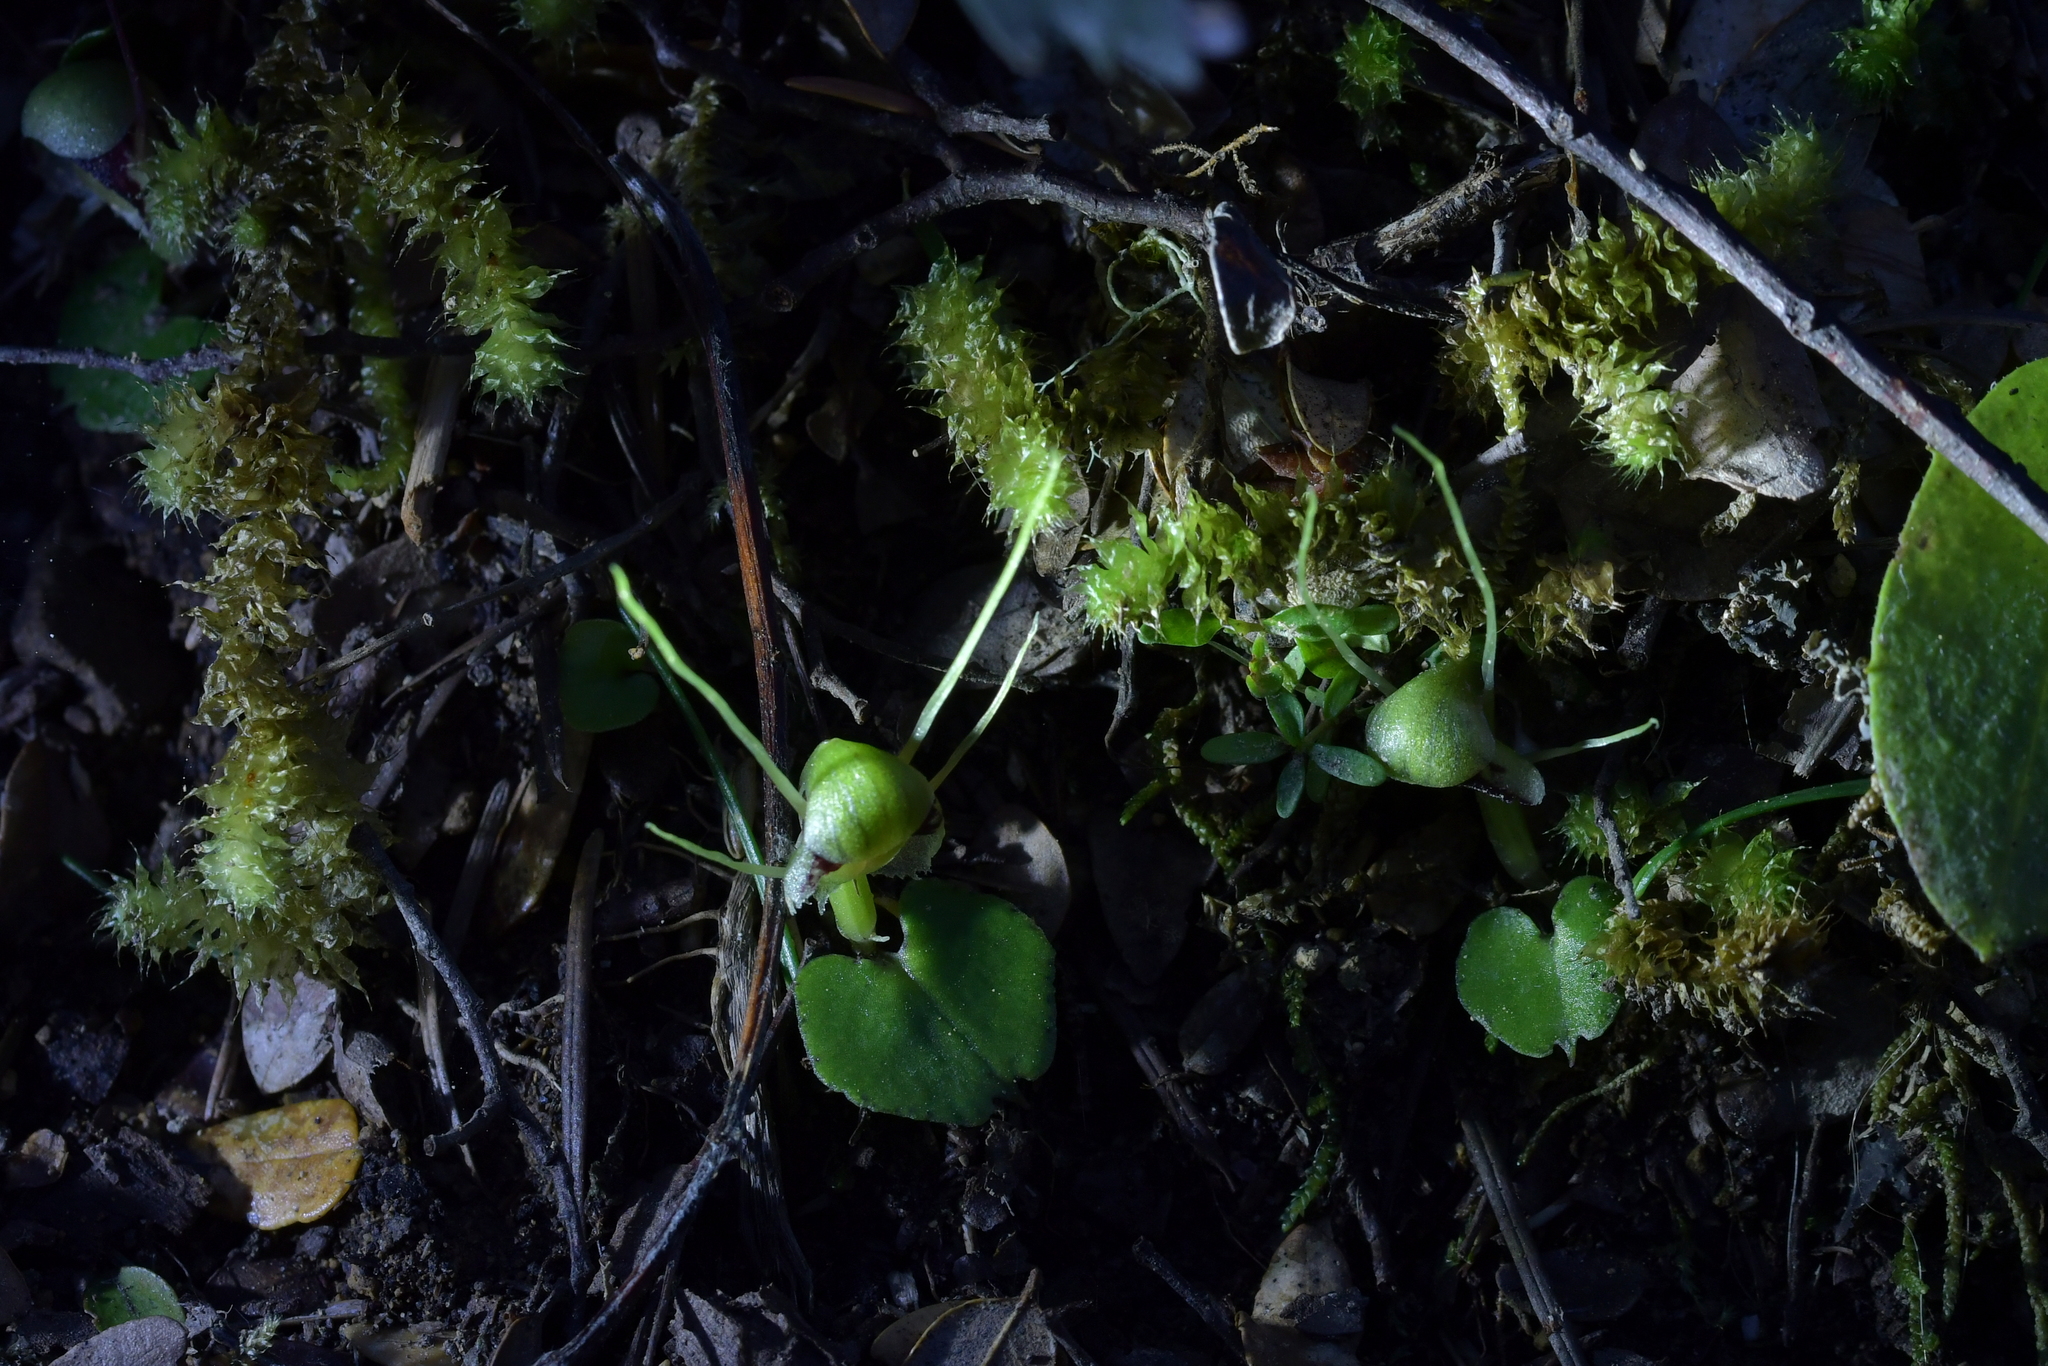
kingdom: Plantae
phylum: Tracheophyta
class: Liliopsida
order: Asparagales
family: Orchidaceae
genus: Corybas
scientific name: Corybas vitreus
